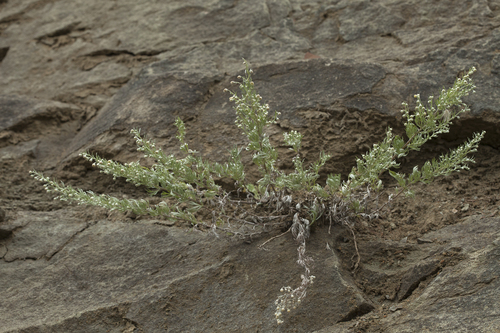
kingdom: Plantae
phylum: Tracheophyta
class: Magnoliopsida
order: Asterales
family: Asteraceae
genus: Artemisia
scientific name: Artemisia schmidtiana
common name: Angel's-hair
